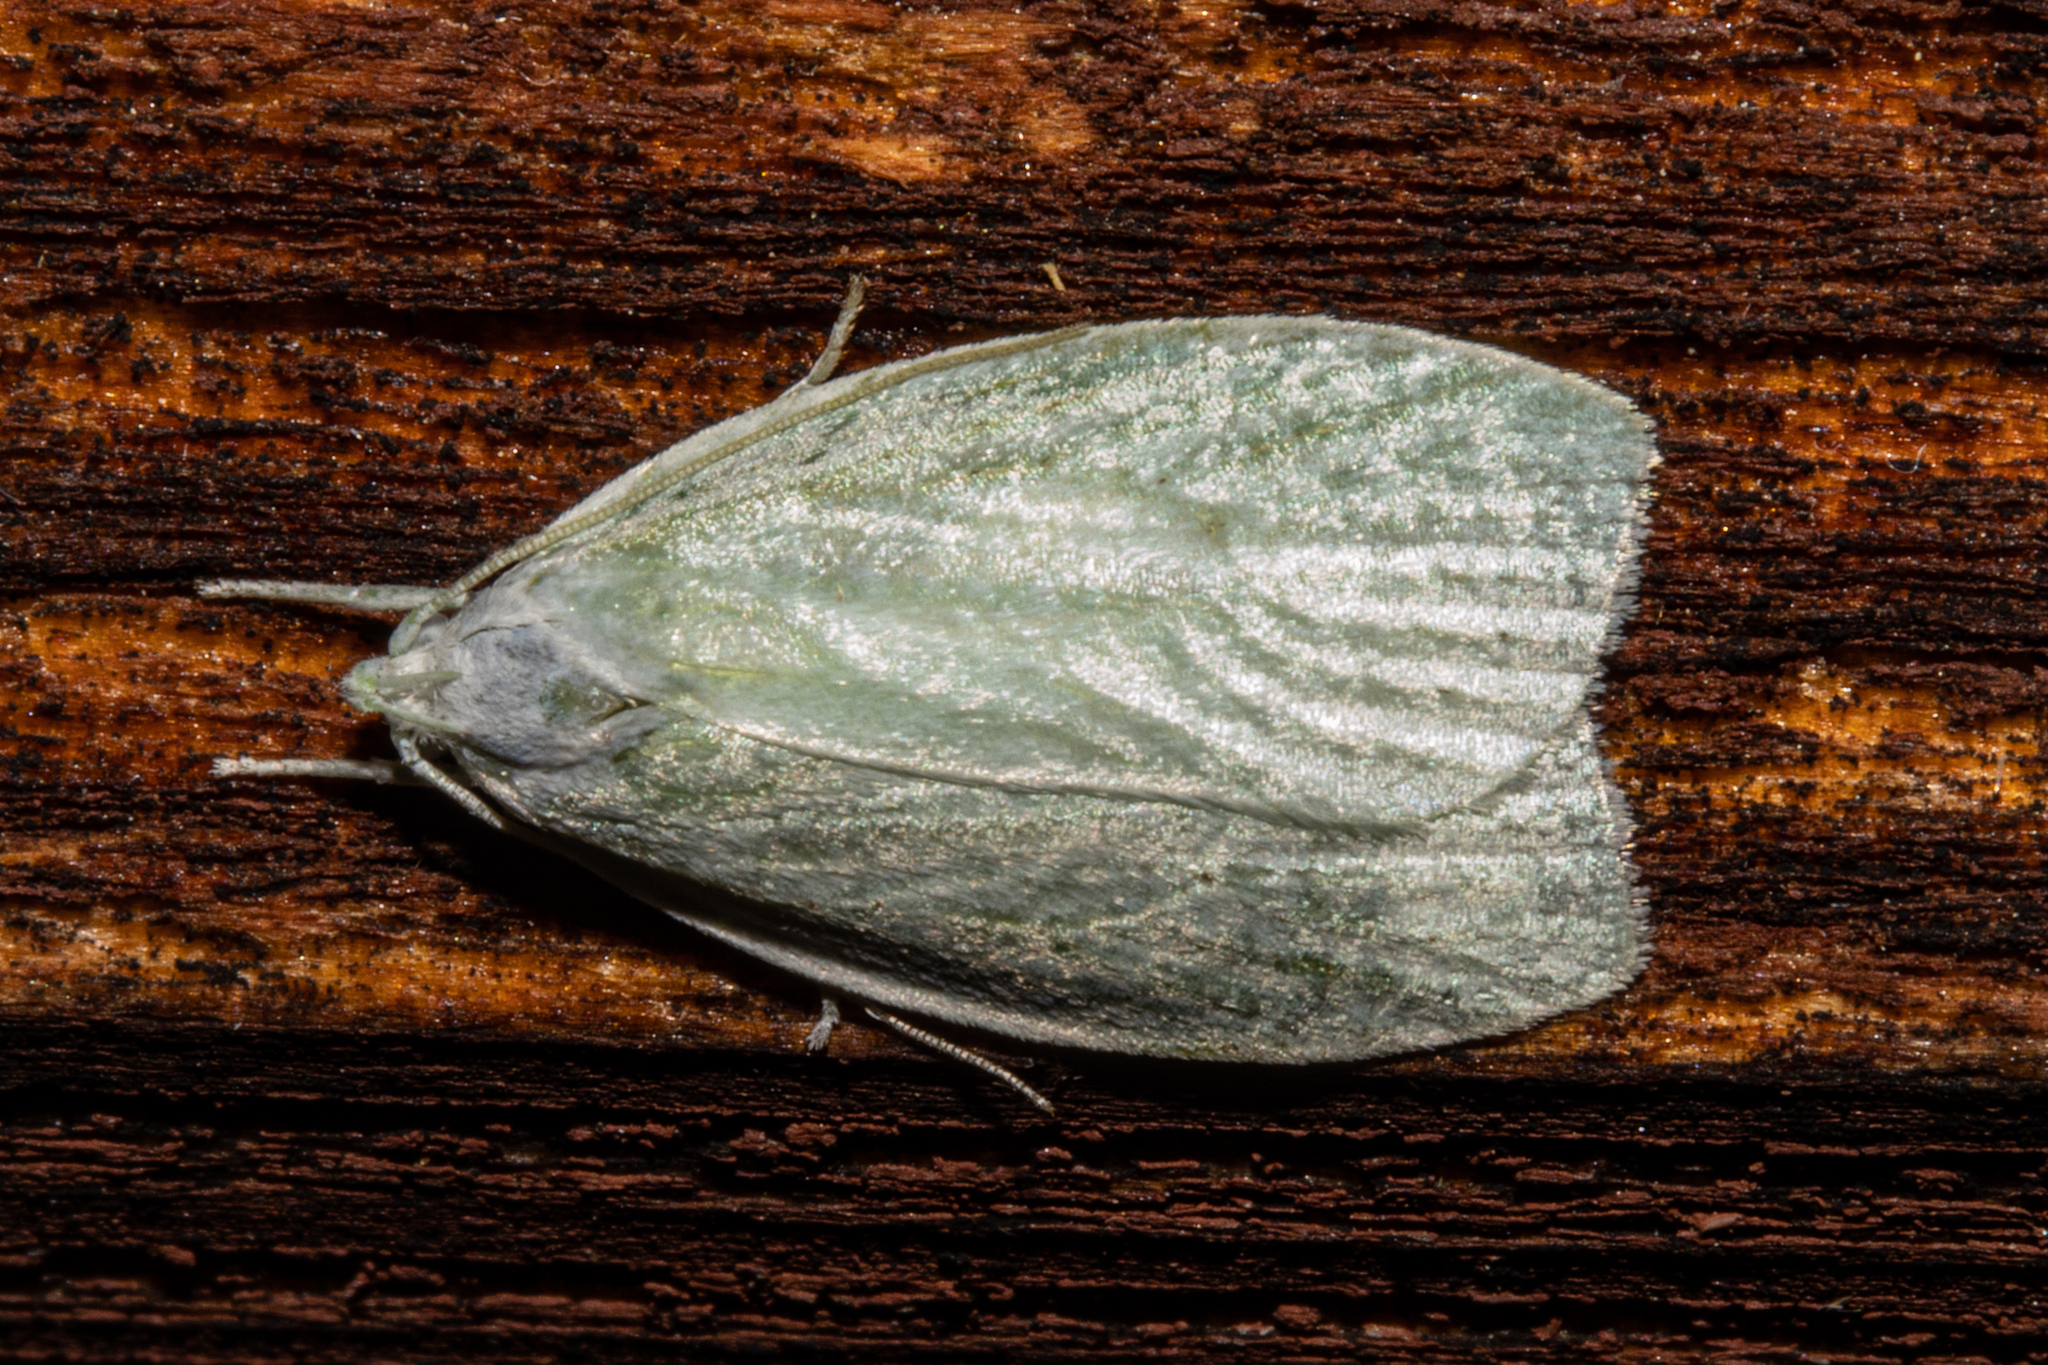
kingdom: Animalia
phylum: Arthropoda
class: Insecta
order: Lepidoptera
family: Oecophoridae
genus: Nymphostola
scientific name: Nymphostola galactina
